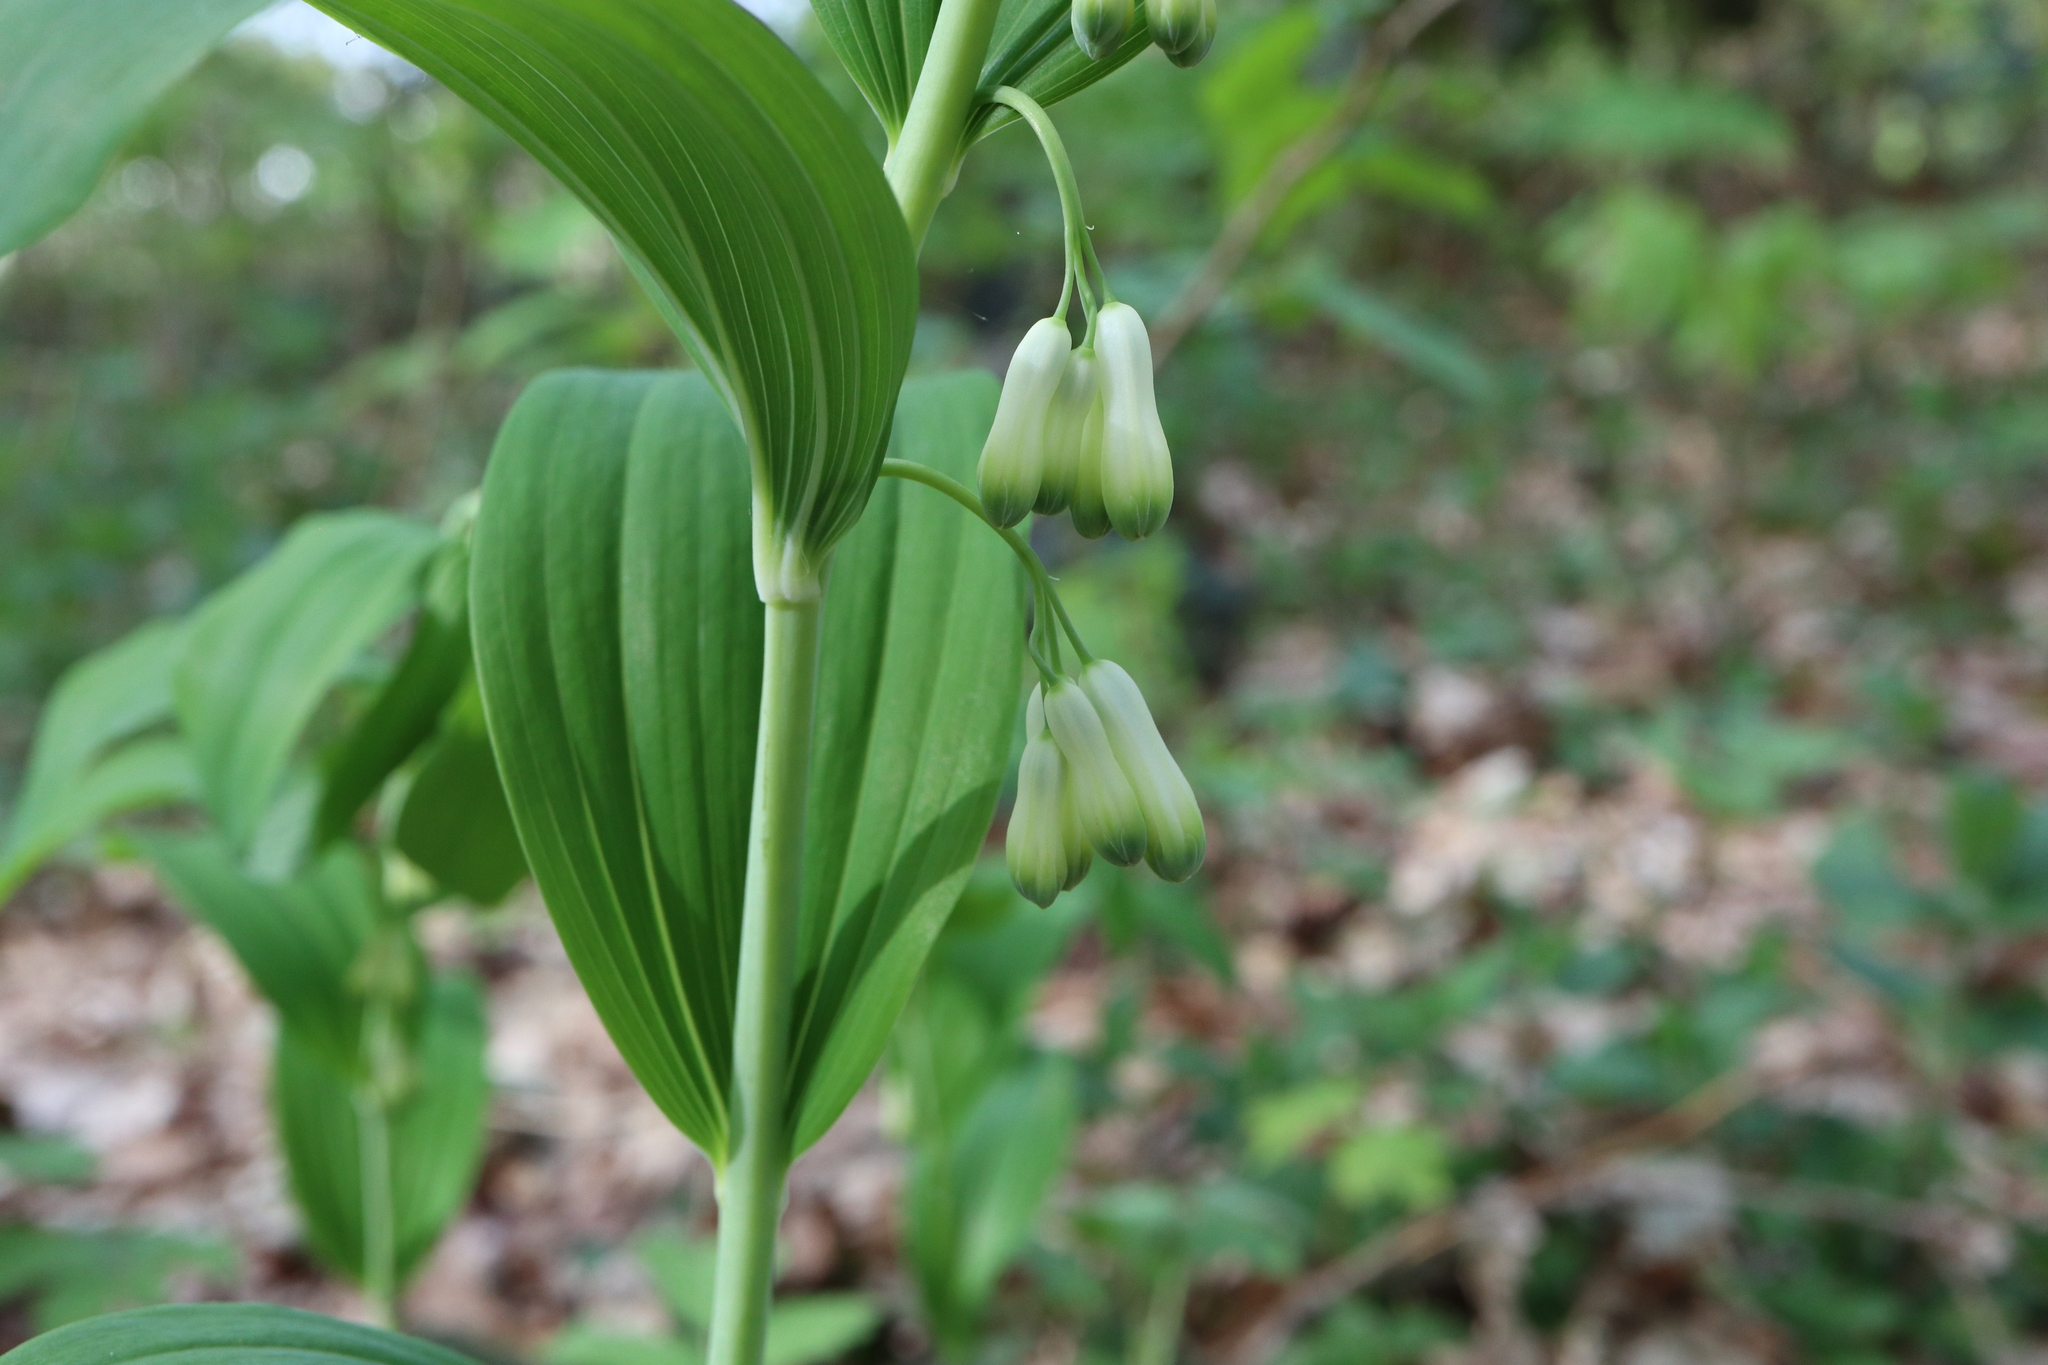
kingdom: Plantae
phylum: Tracheophyta
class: Liliopsida
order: Asparagales
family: Asparagaceae
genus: Polygonatum
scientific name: Polygonatum multiflorum
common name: Solomon's-seal
